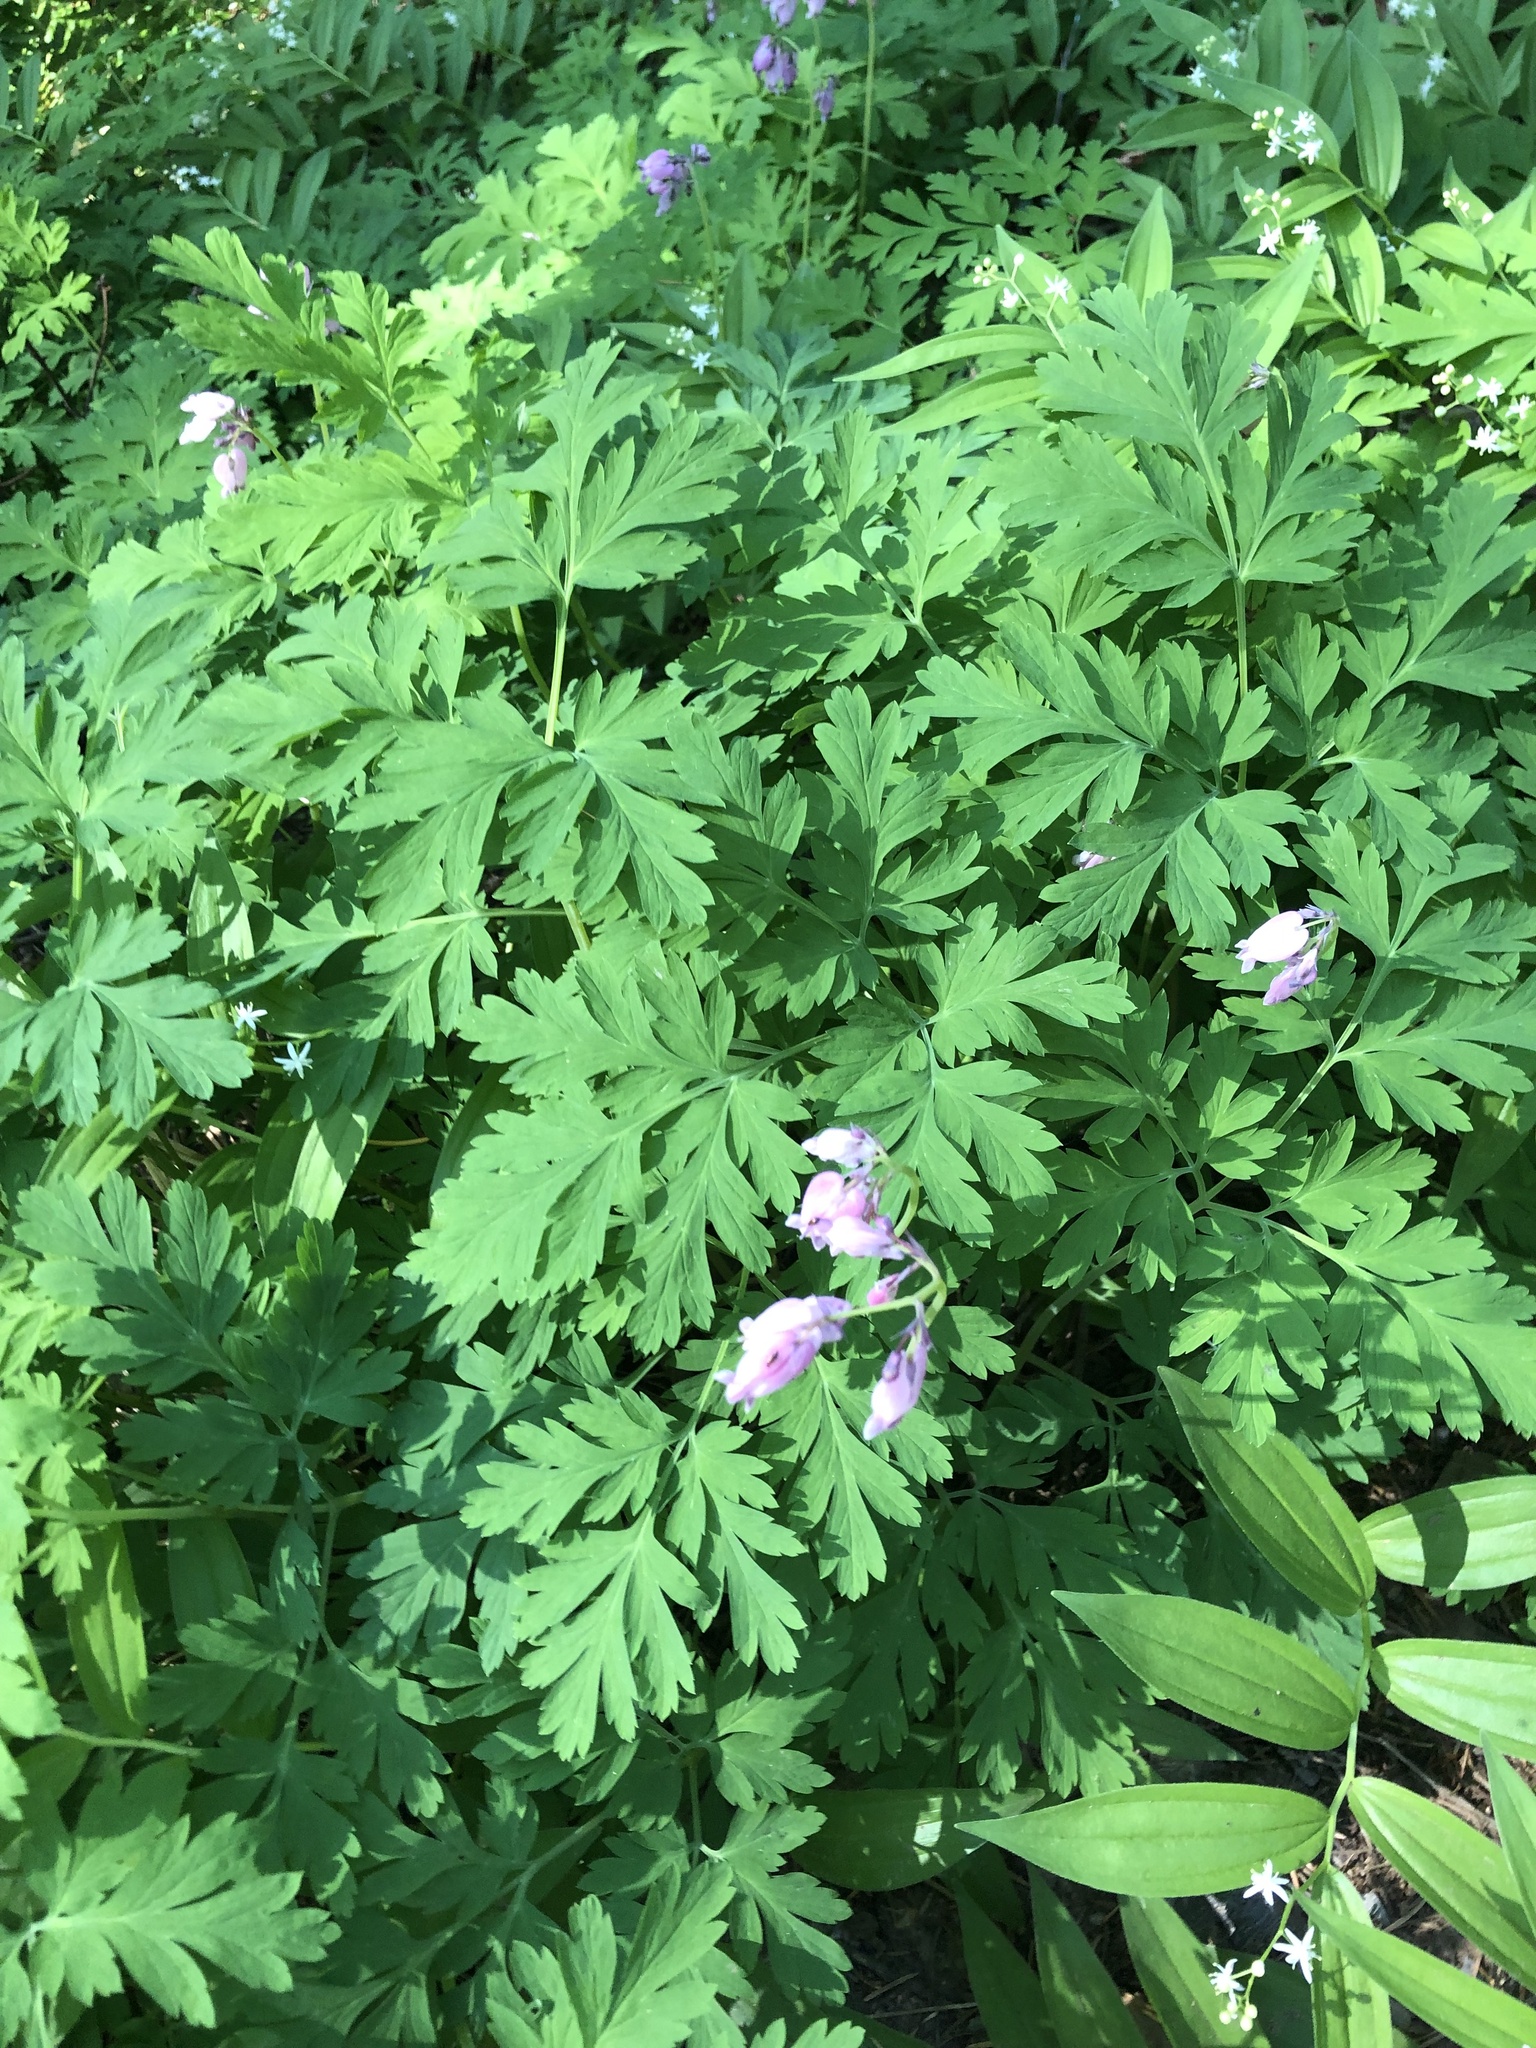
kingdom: Plantae
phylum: Tracheophyta
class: Magnoliopsida
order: Ranunculales
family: Papaveraceae
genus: Dicentra
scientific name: Dicentra formosa
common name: Bleeding-heart
